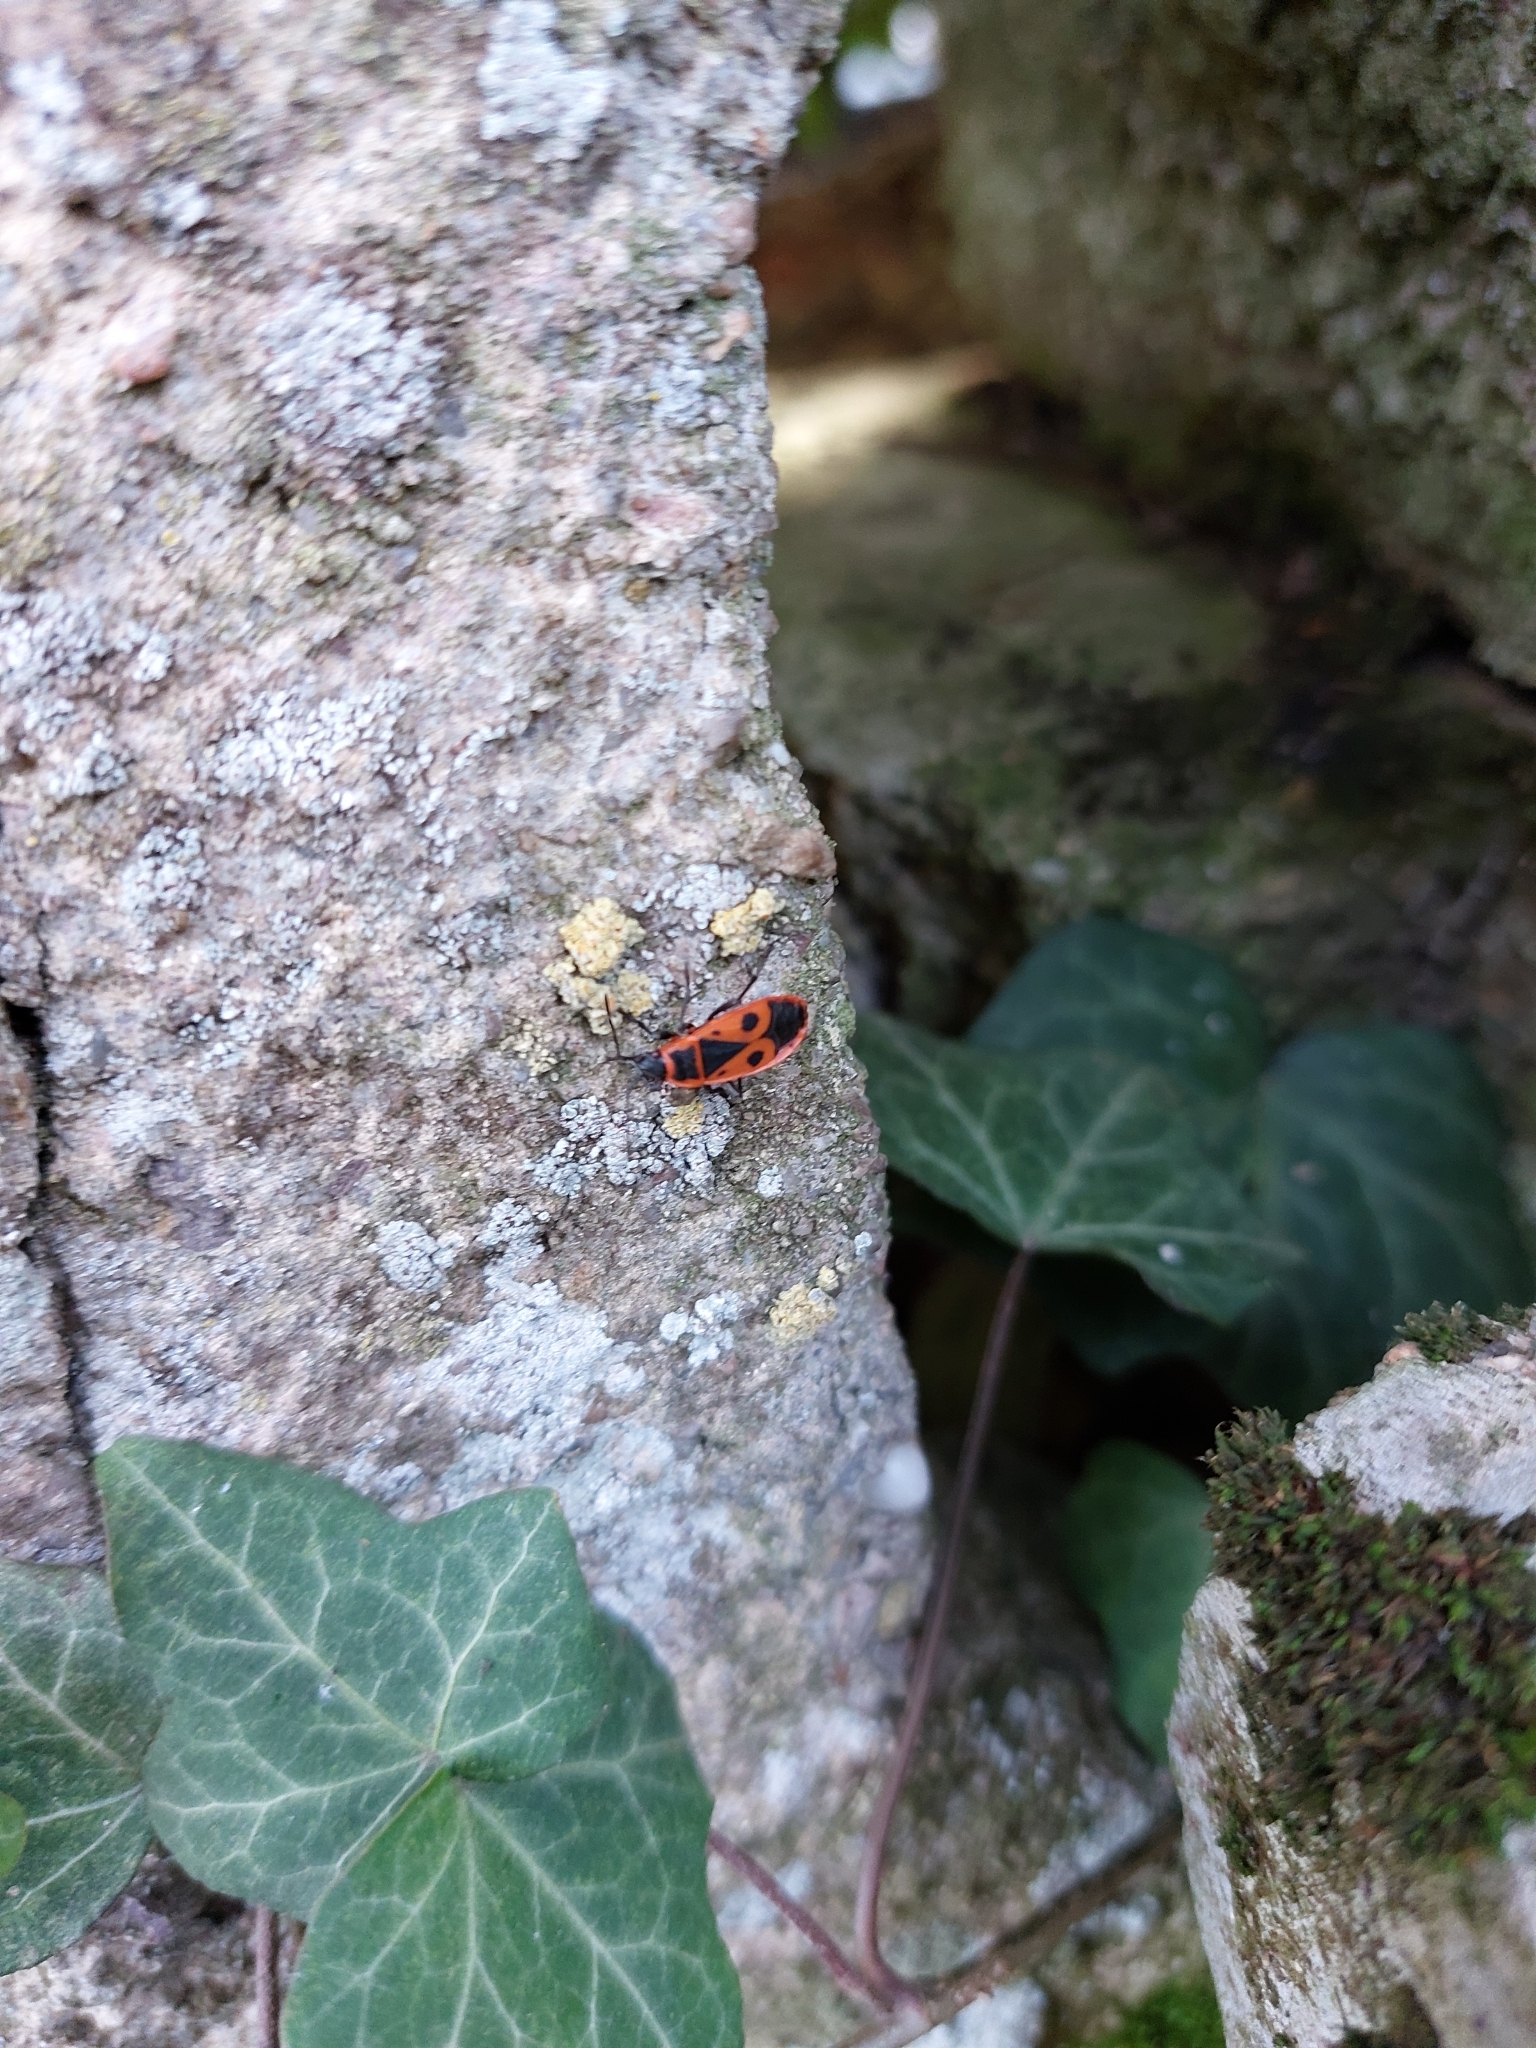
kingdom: Animalia
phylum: Arthropoda
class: Insecta
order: Hemiptera
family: Pyrrhocoridae
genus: Pyrrhocoris
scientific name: Pyrrhocoris apterus
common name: Firebug
